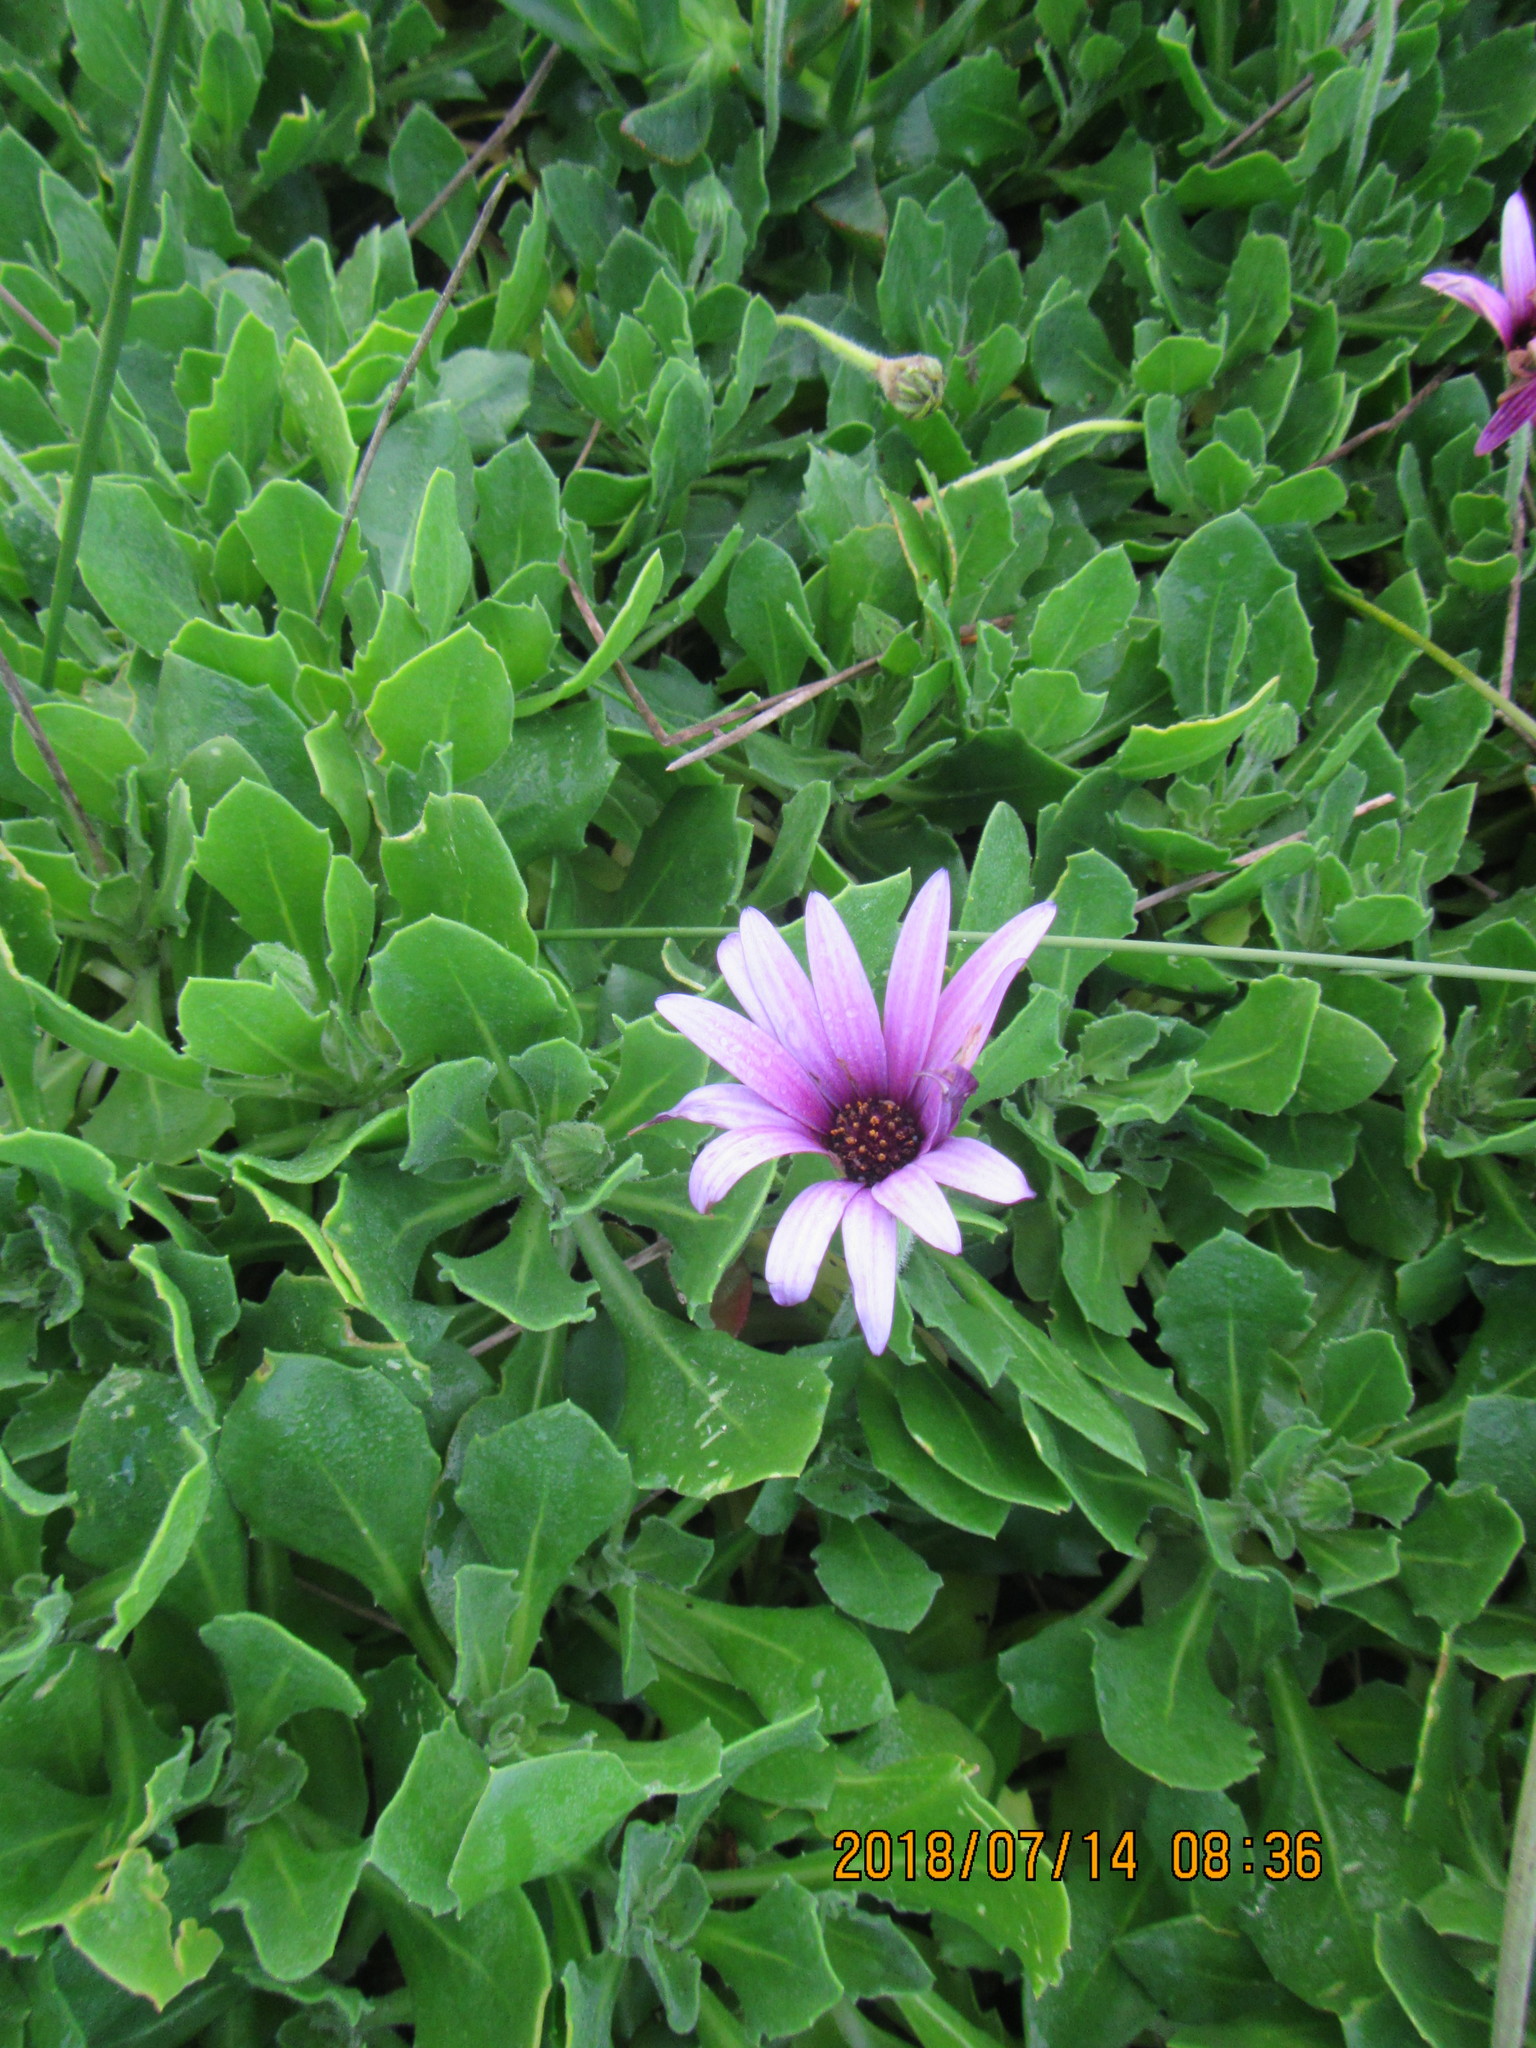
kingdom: Plantae
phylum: Tracheophyta
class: Magnoliopsida
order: Asterales
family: Asteraceae
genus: Dimorphotheca
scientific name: Dimorphotheca fruticosa
